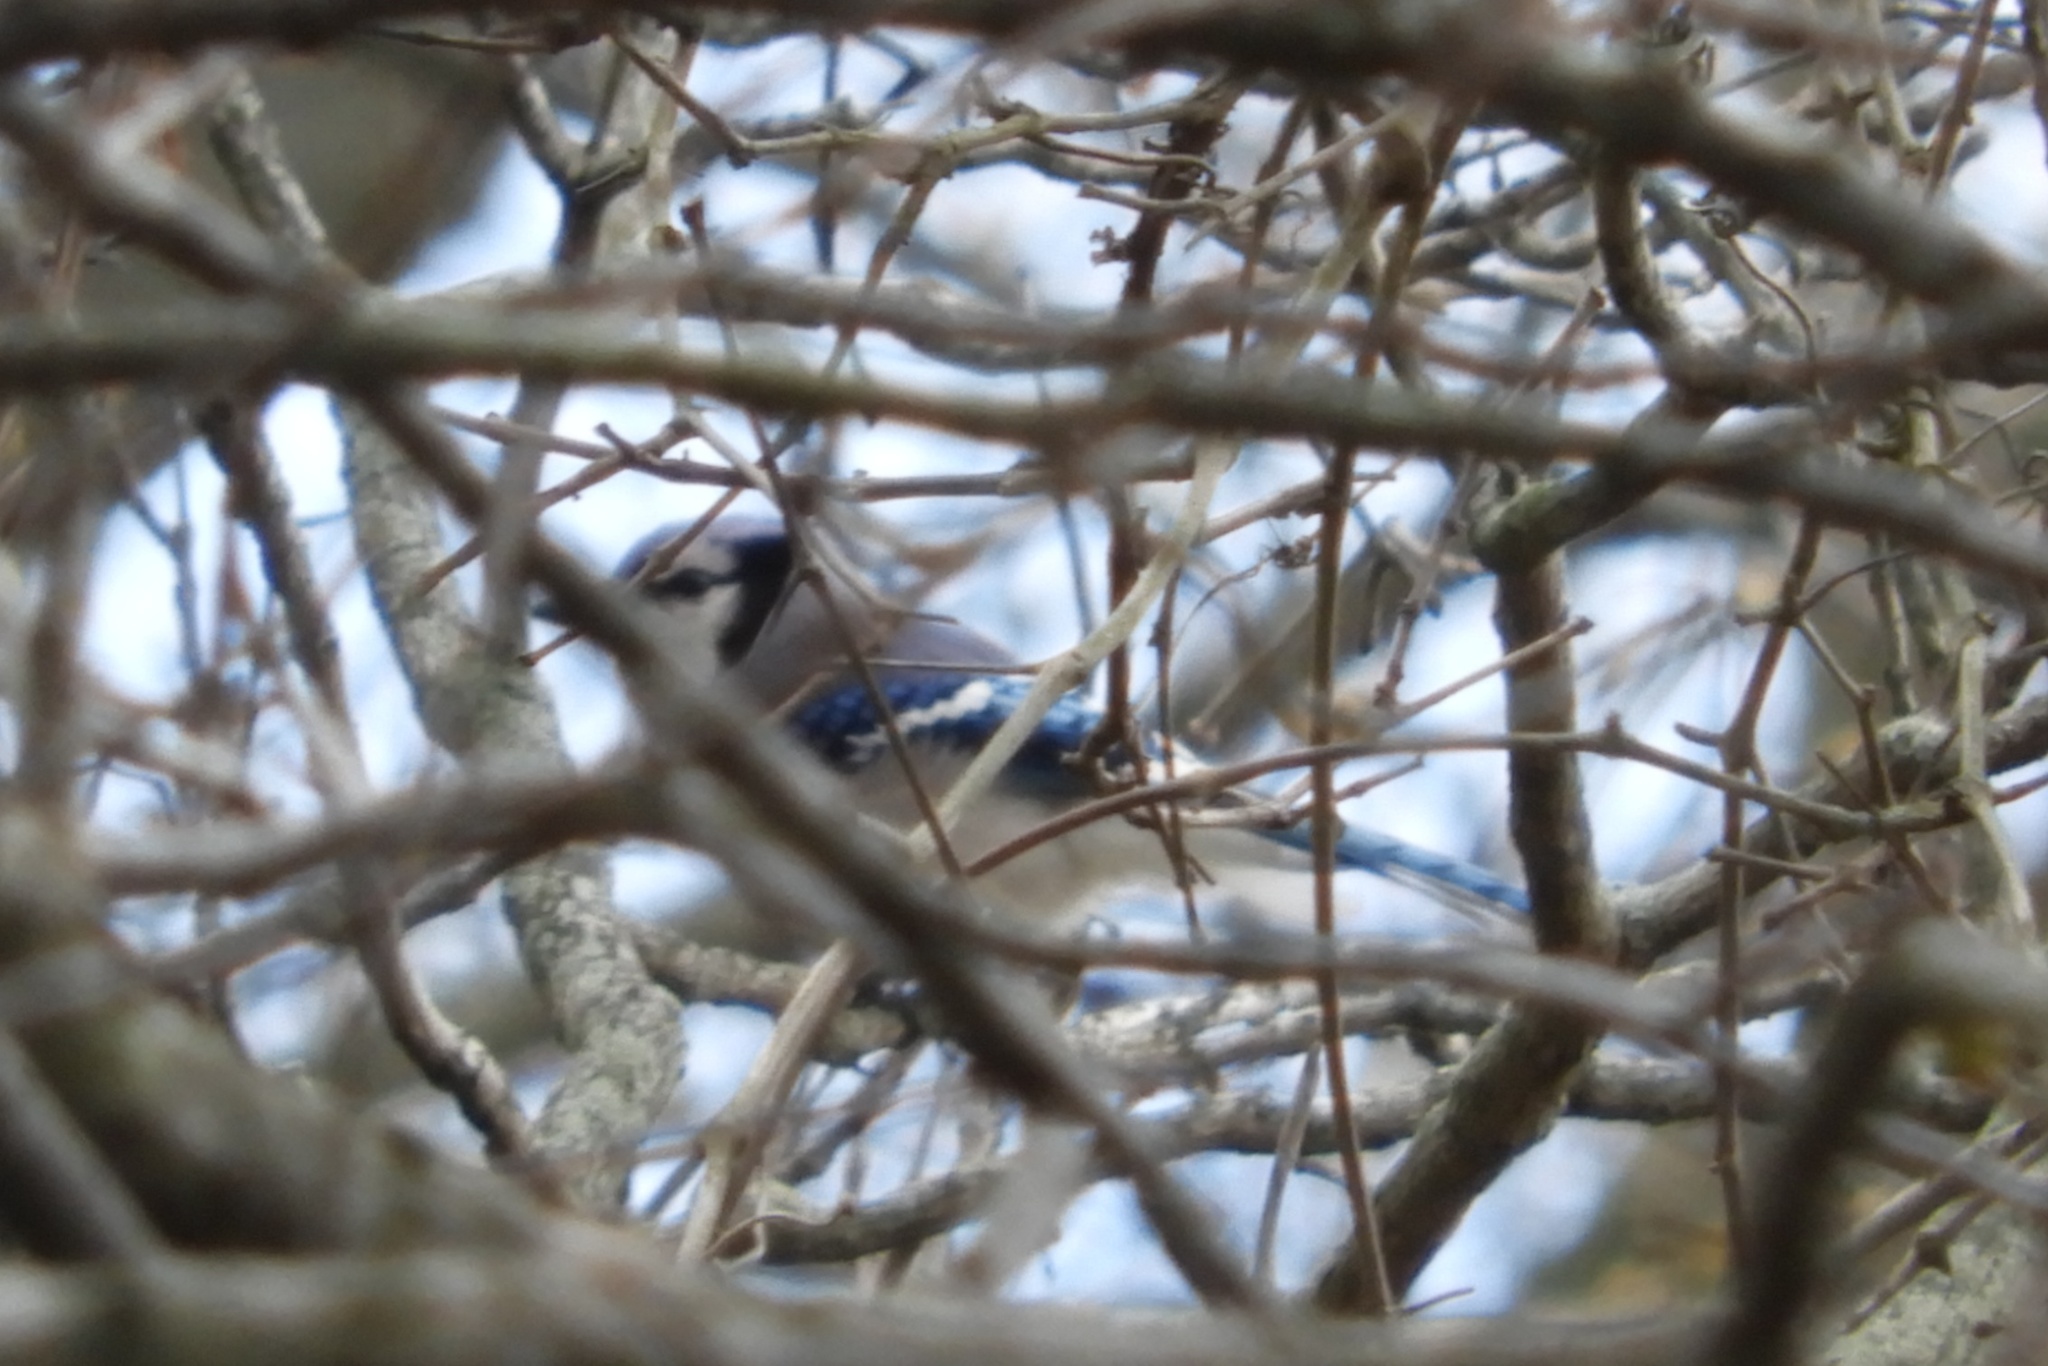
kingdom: Animalia
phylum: Chordata
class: Aves
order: Passeriformes
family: Corvidae
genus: Cyanocitta
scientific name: Cyanocitta cristata
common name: Blue jay
